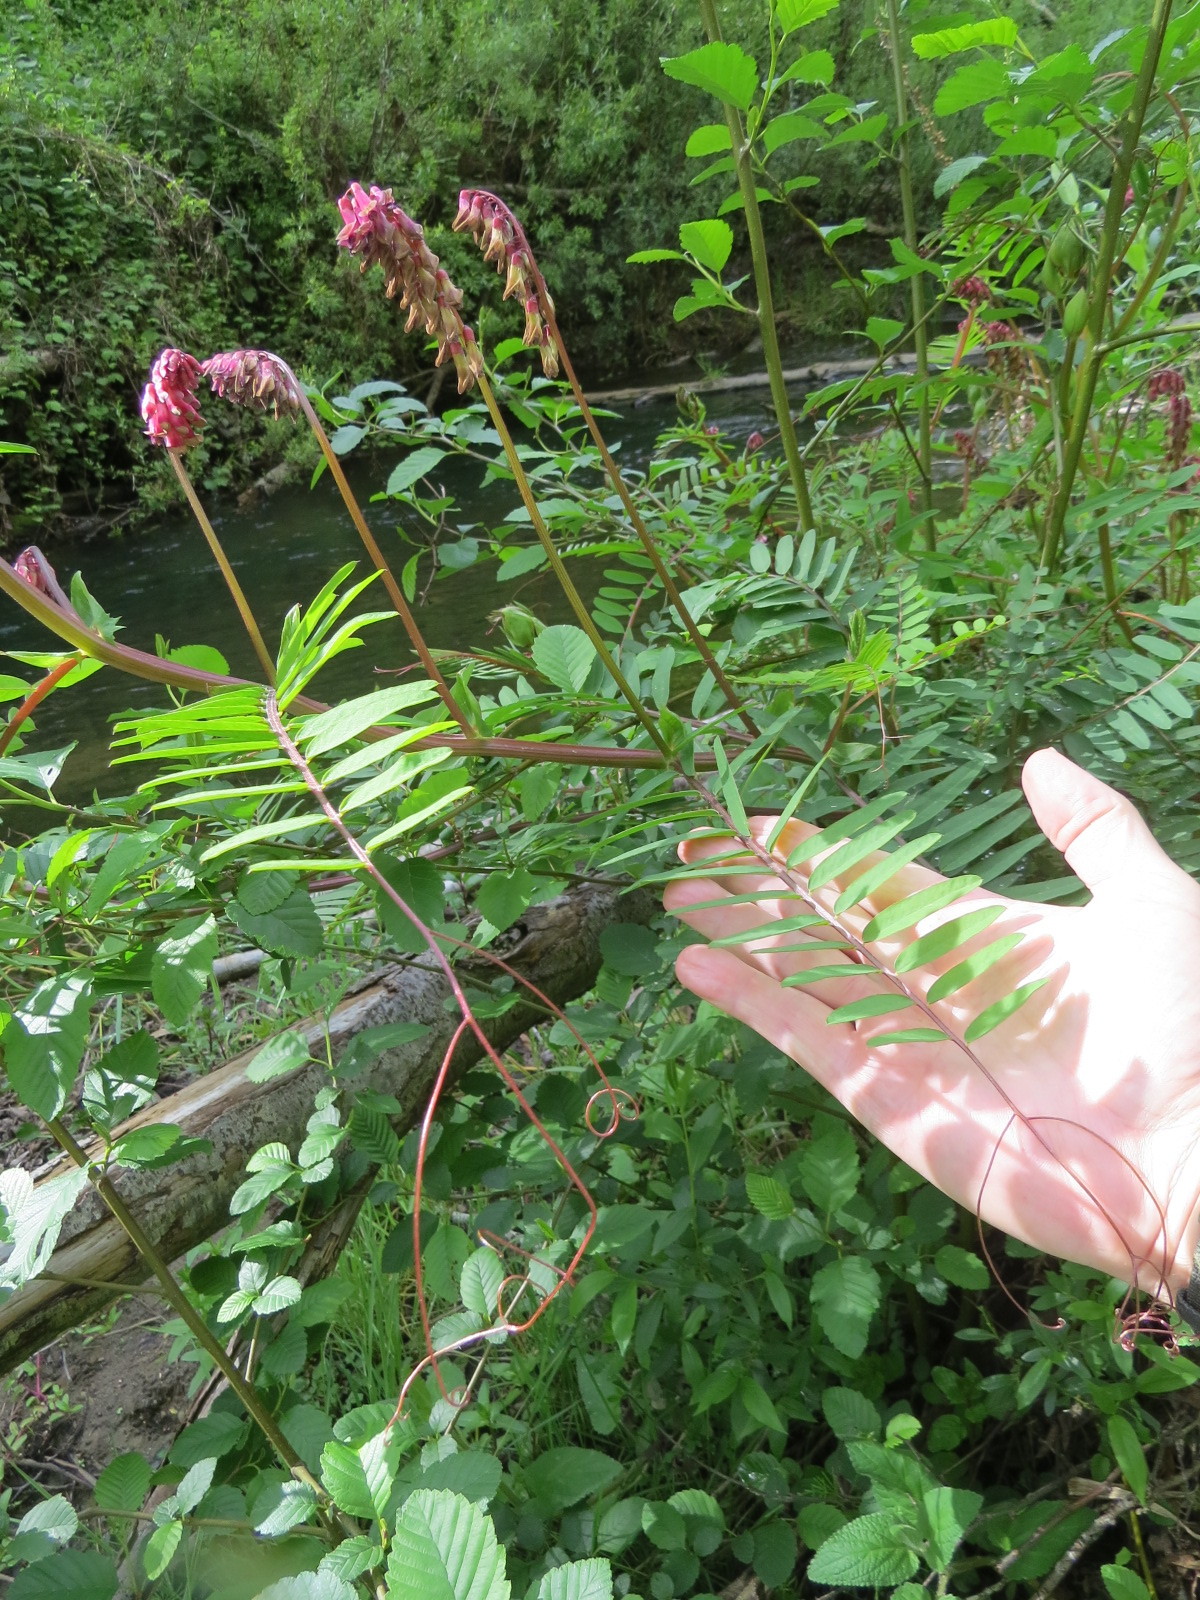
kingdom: Plantae
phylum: Tracheophyta
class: Magnoliopsida
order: Fabales
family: Fabaceae
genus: Vicia
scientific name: Vicia
